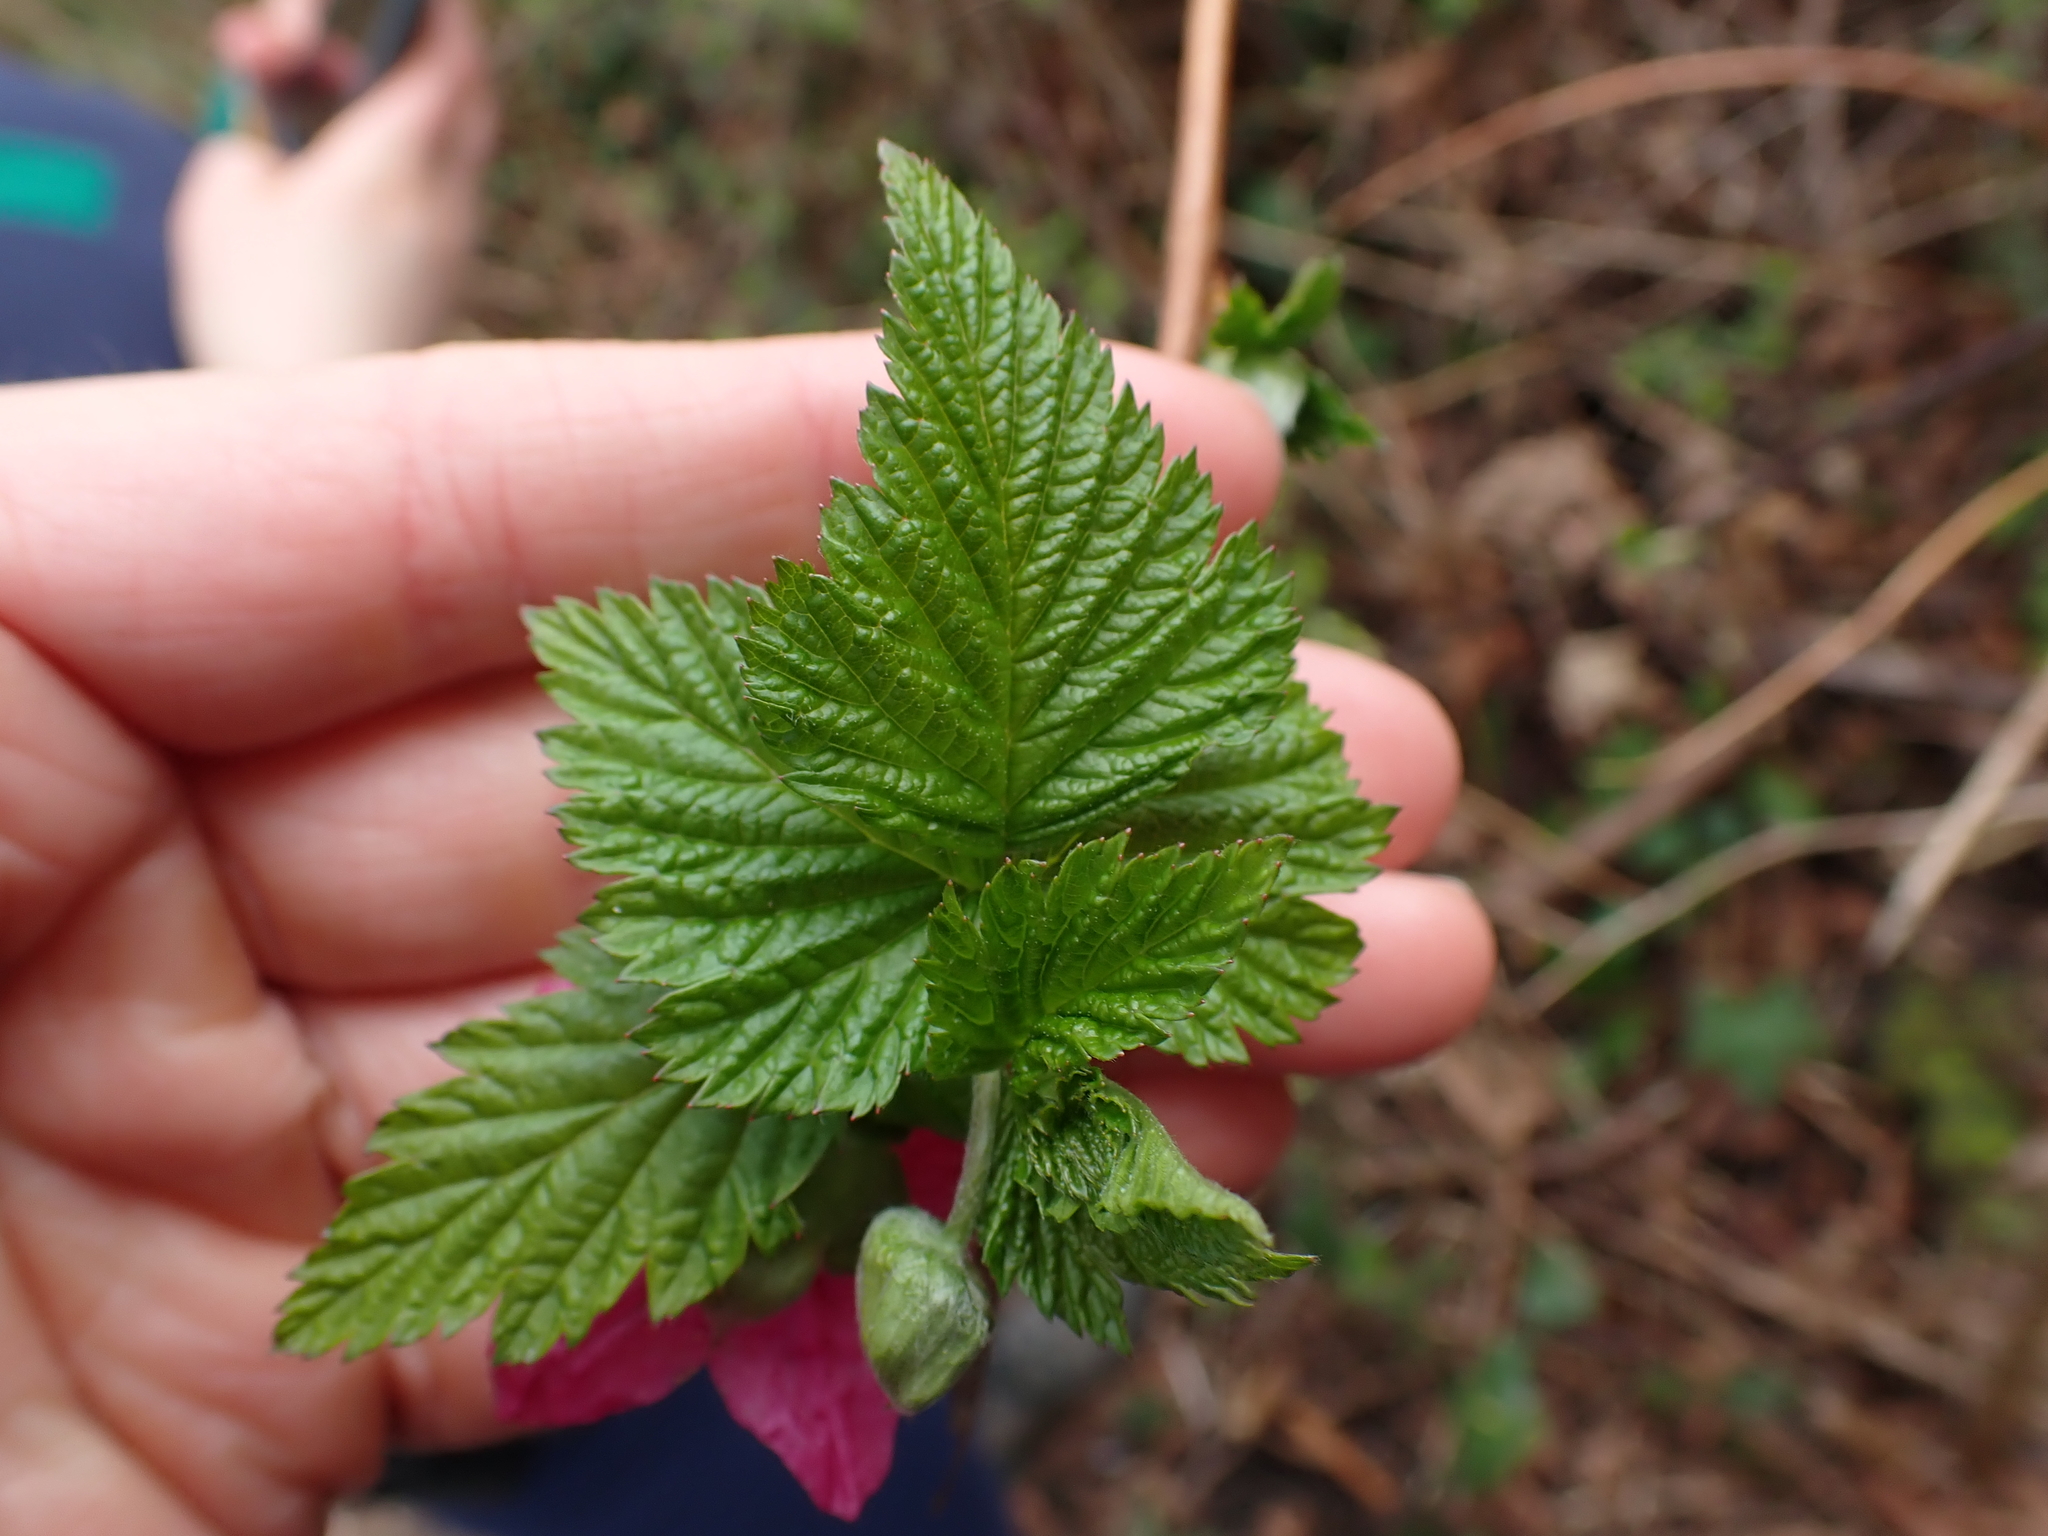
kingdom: Plantae
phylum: Tracheophyta
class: Magnoliopsida
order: Rosales
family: Rosaceae
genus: Rubus
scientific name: Rubus spectabilis
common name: Salmonberry
